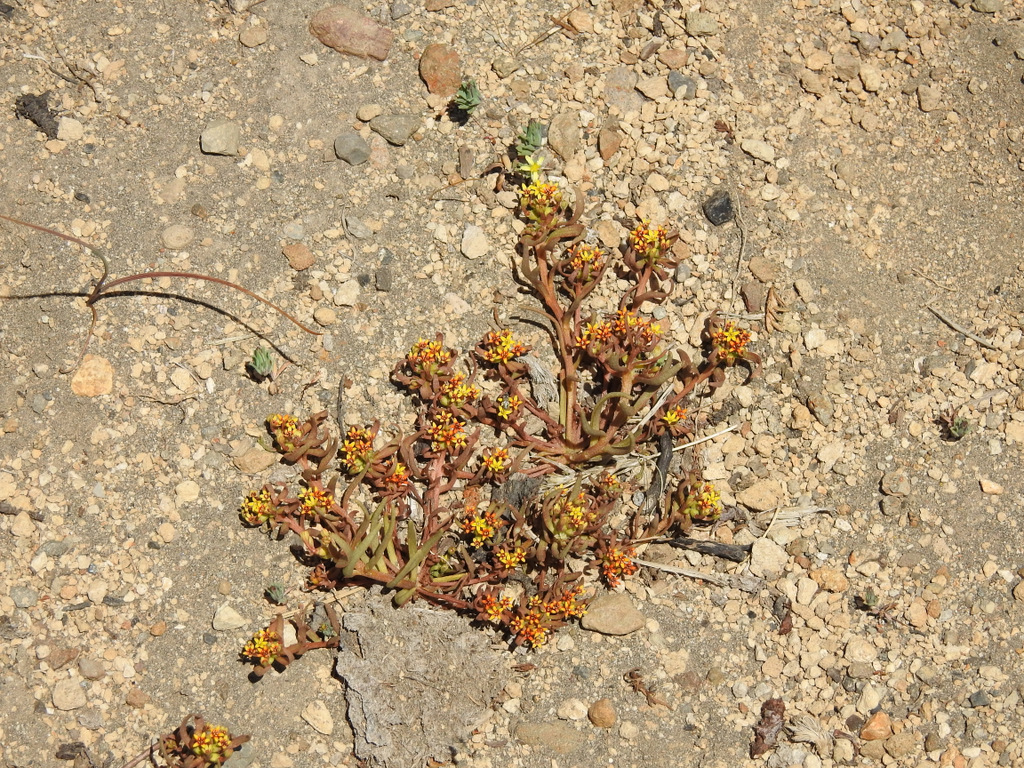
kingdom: Plantae
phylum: Tracheophyta
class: Magnoliopsida
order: Santalales
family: Schoepfiaceae
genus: Quinchamalium
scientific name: Quinchamalium chilense
